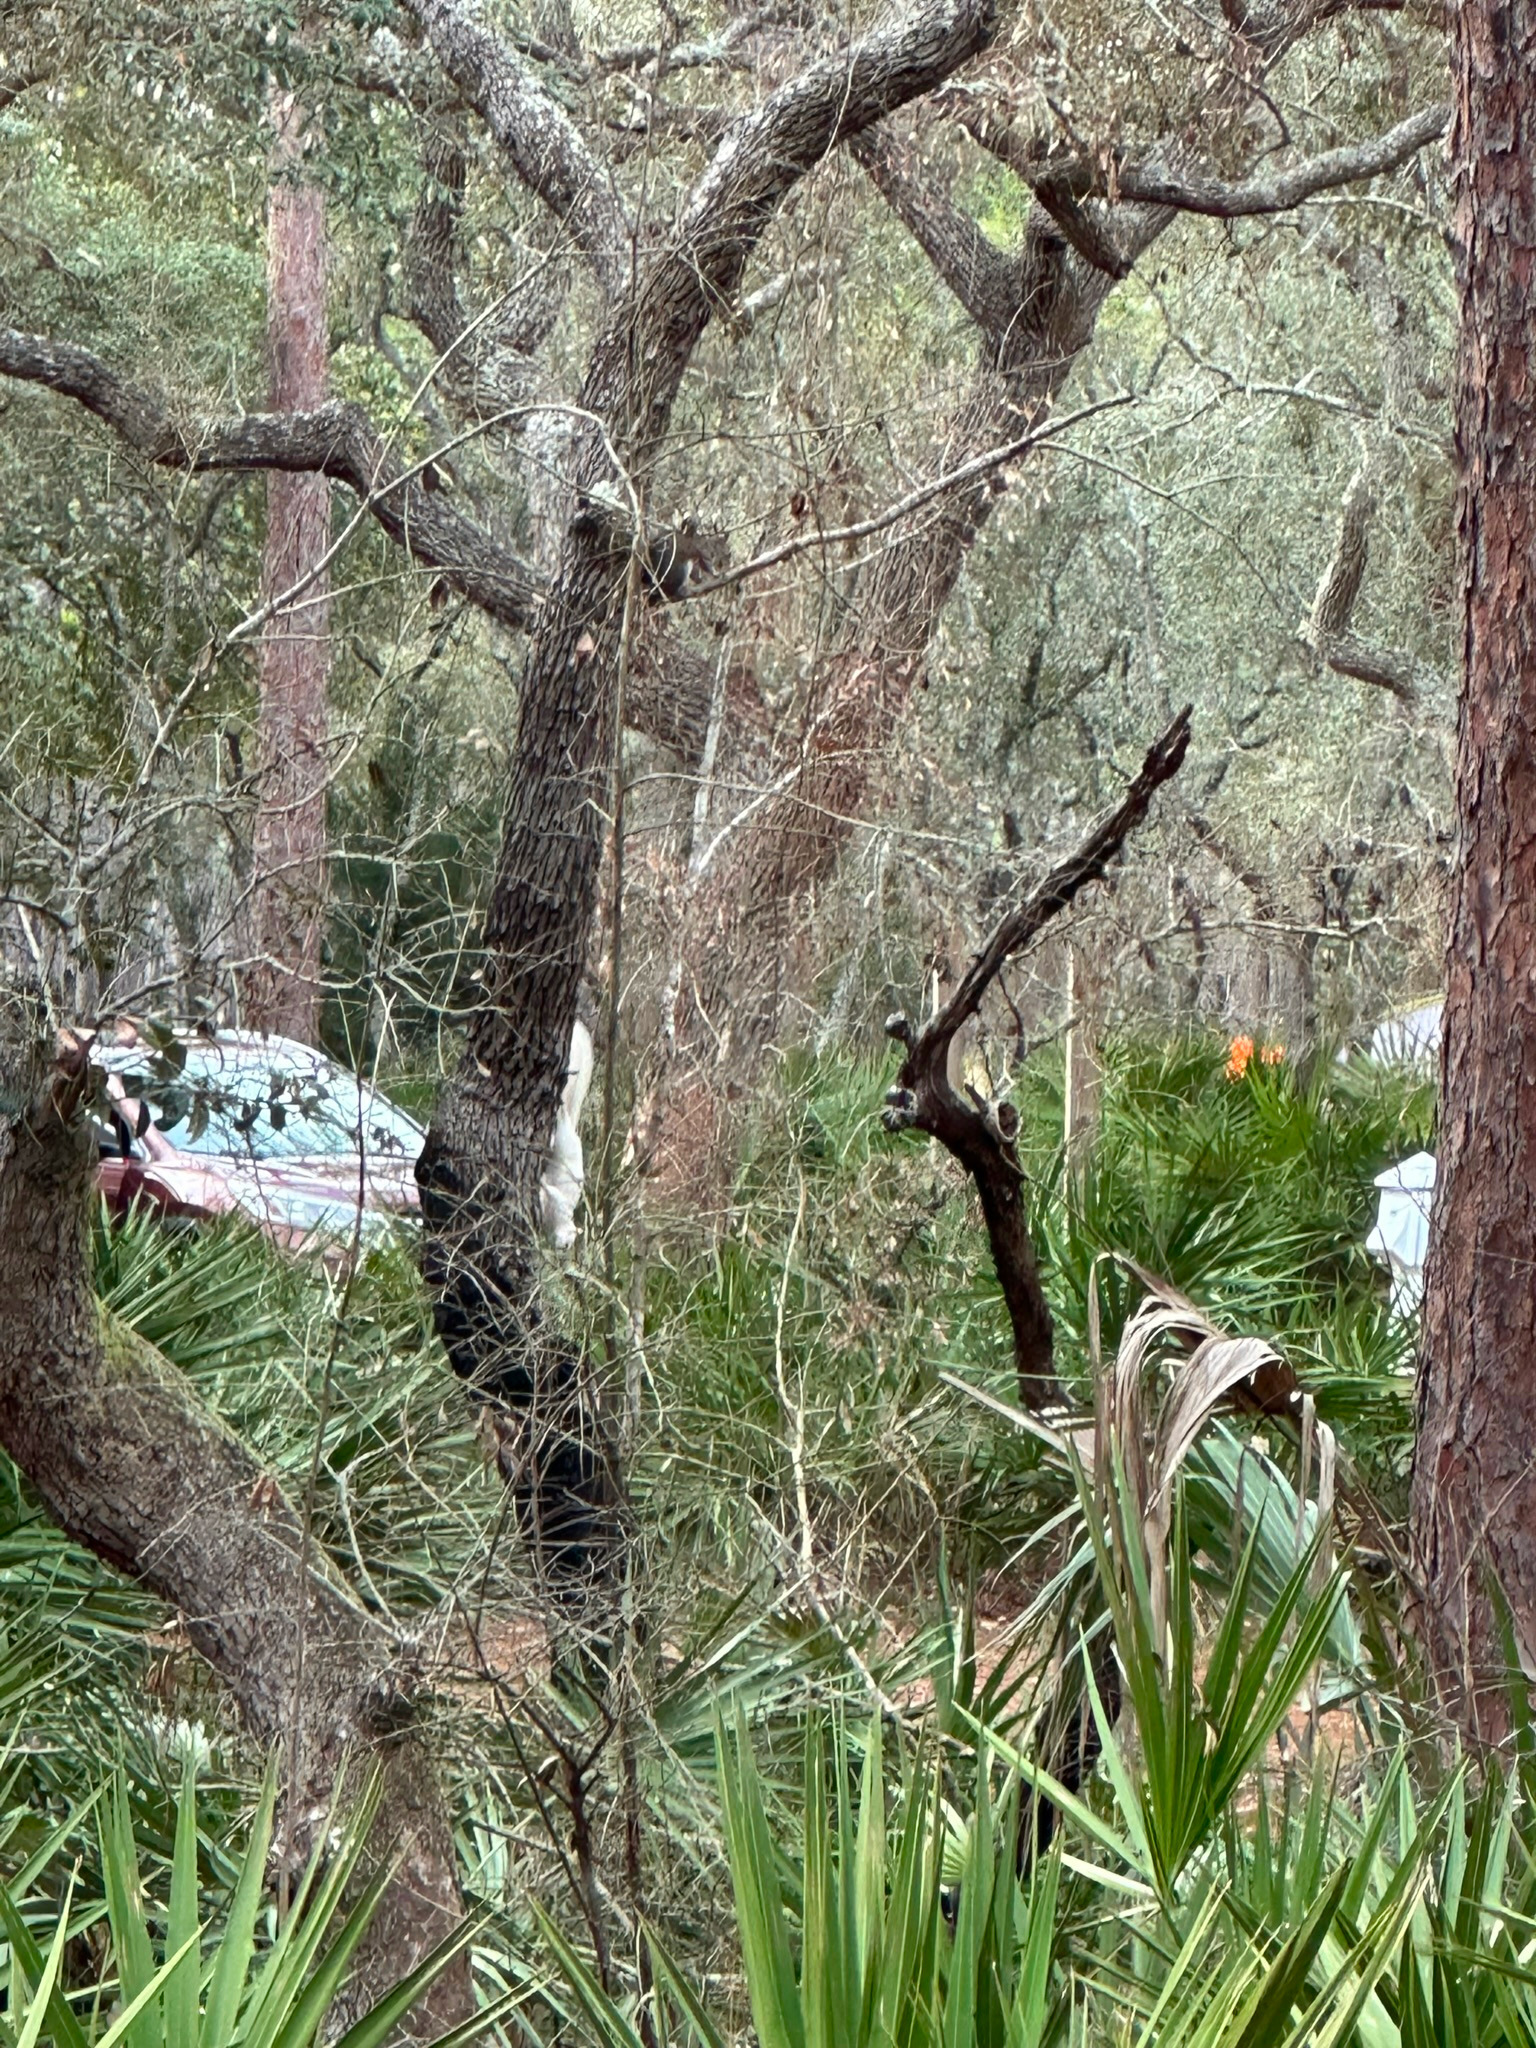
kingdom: Animalia
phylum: Chordata
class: Mammalia
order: Rodentia
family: Sciuridae
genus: Sciurus
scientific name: Sciurus carolinensis
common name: Eastern gray squirrel
